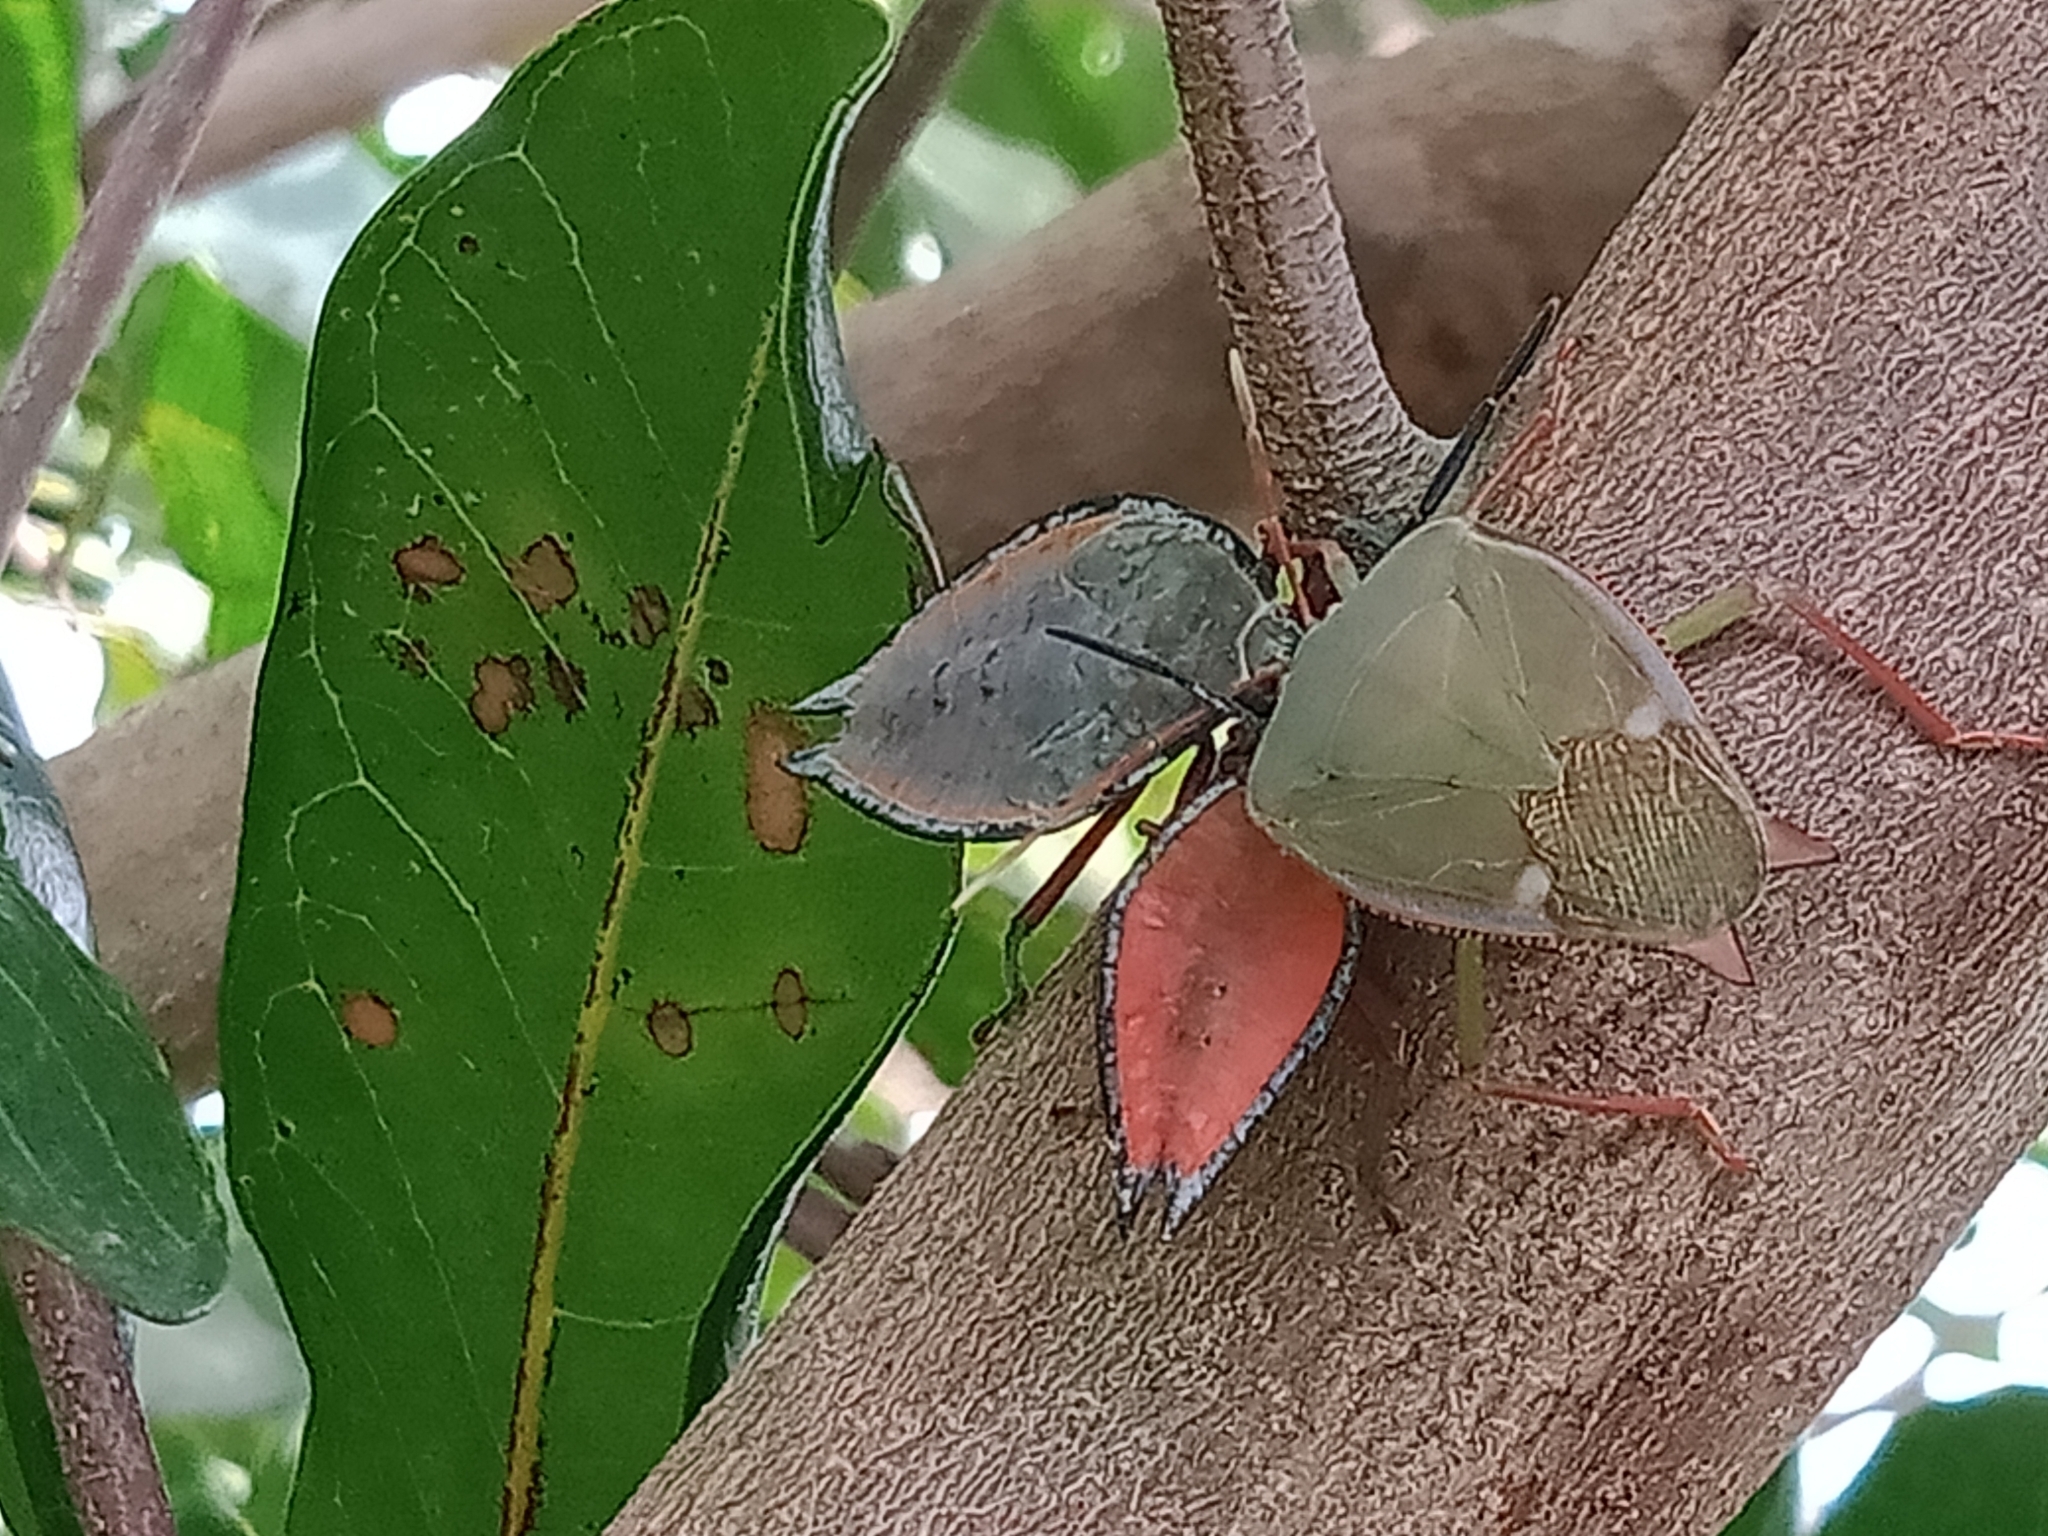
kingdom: Animalia
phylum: Arthropoda
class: Insecta
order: Hemiptera
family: Tessaratomidae
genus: Lyramorpha
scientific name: Lyramorpha rosea
